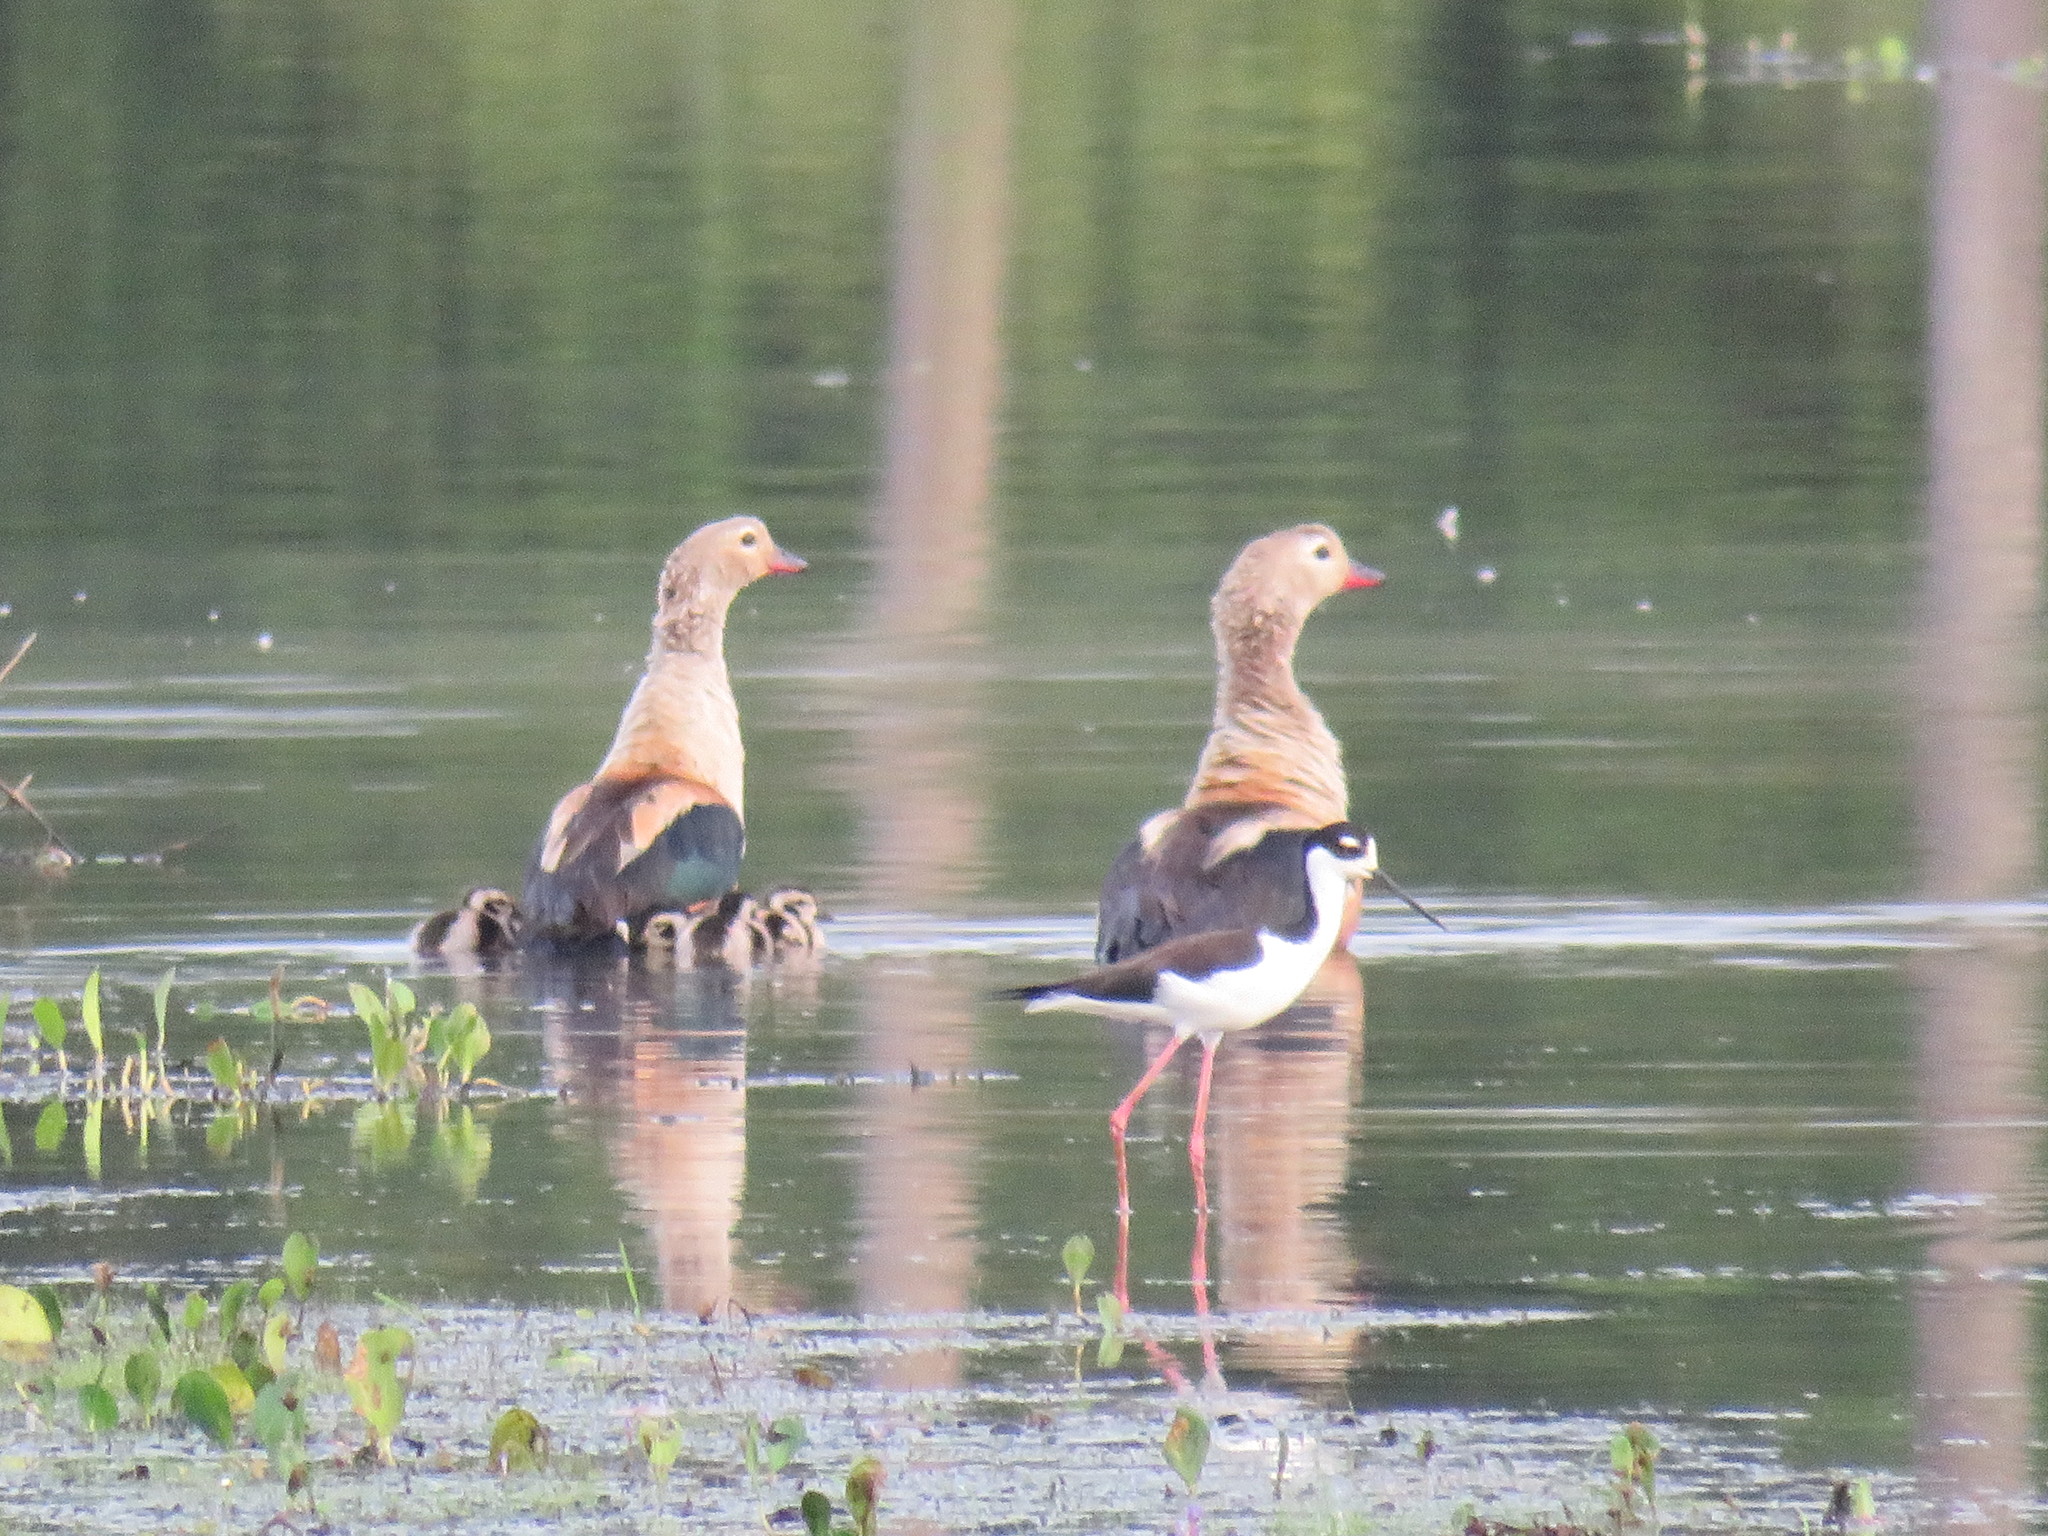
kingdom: Animalia
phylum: Chordata
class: Aves
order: Anseriformes
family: Anatidae
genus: Oressochen
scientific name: Oressochen jubatus
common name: Orinoco goose
